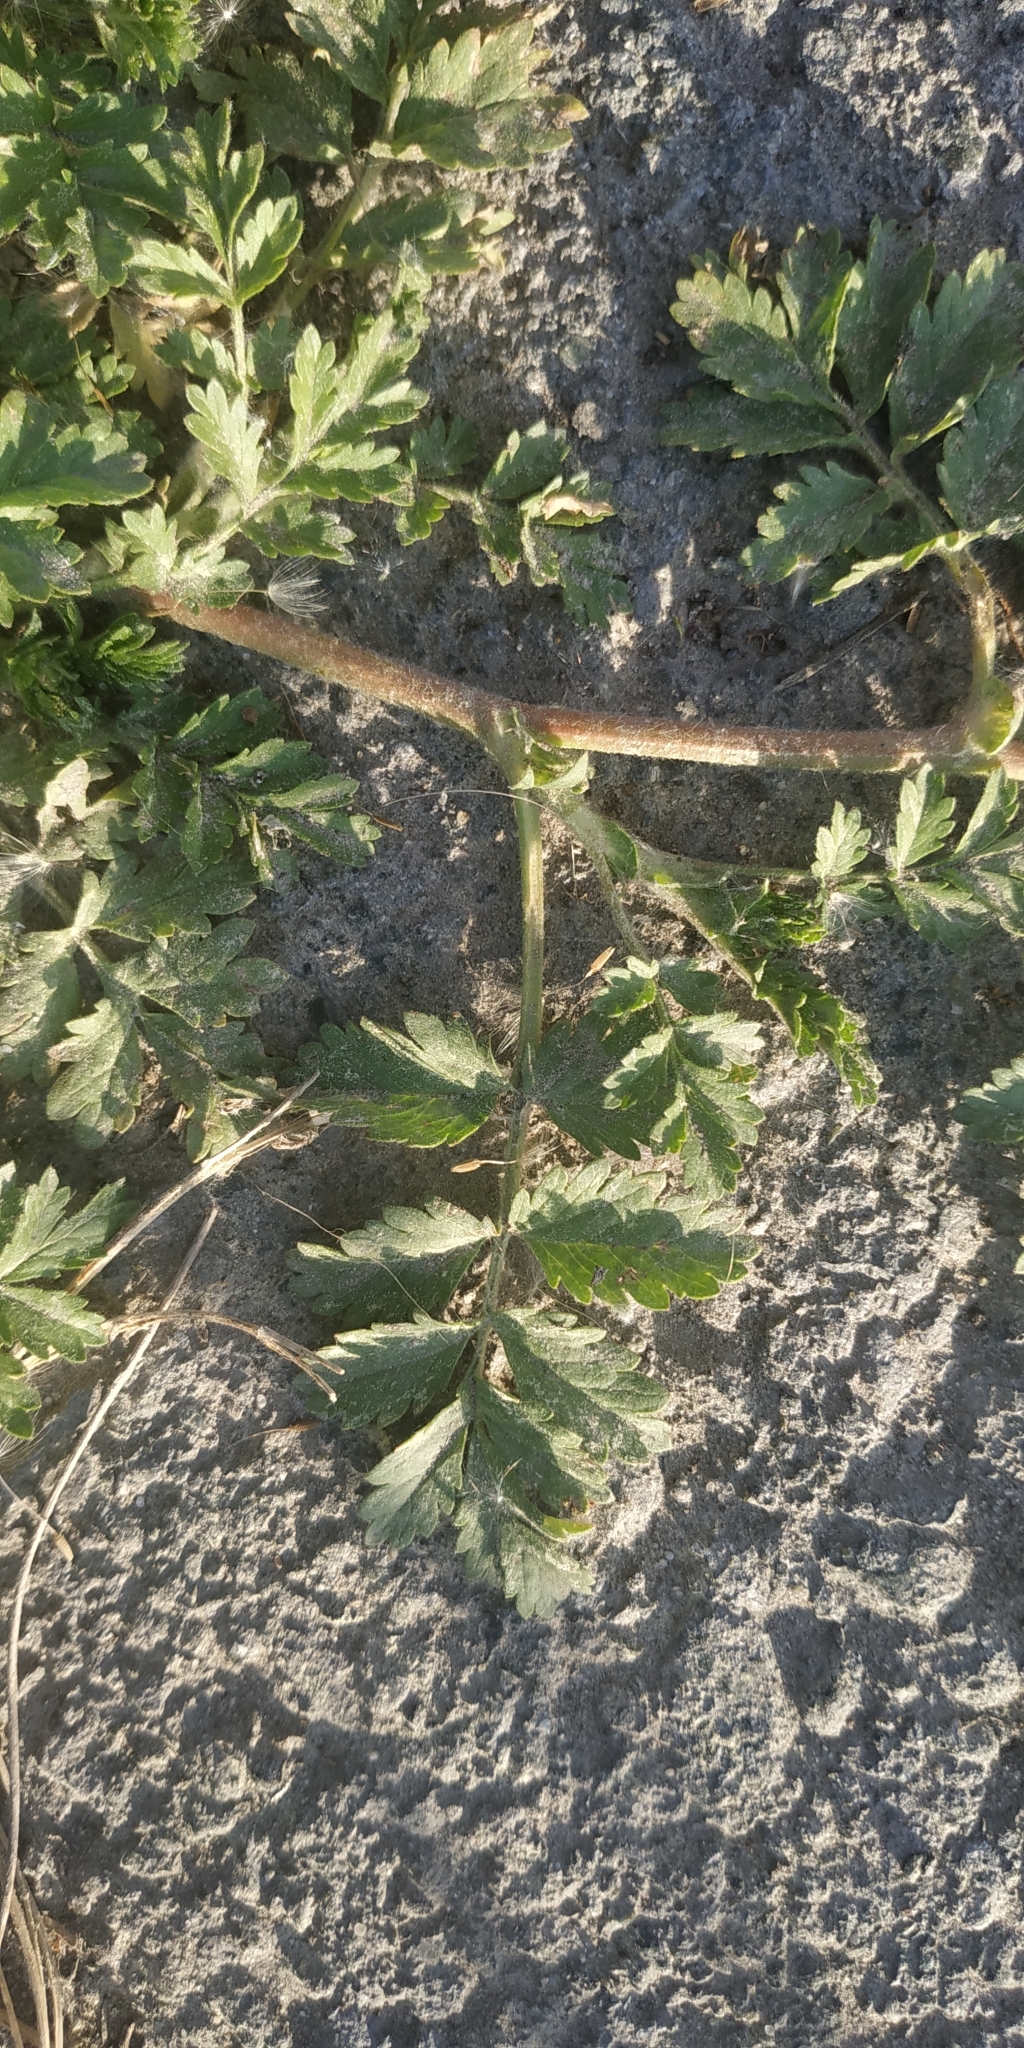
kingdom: Plantae
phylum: Tracheophyta
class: Magnoliopsida
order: Rosales
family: Rosaceae
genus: Potentilla
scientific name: Potentilla tobolensis
